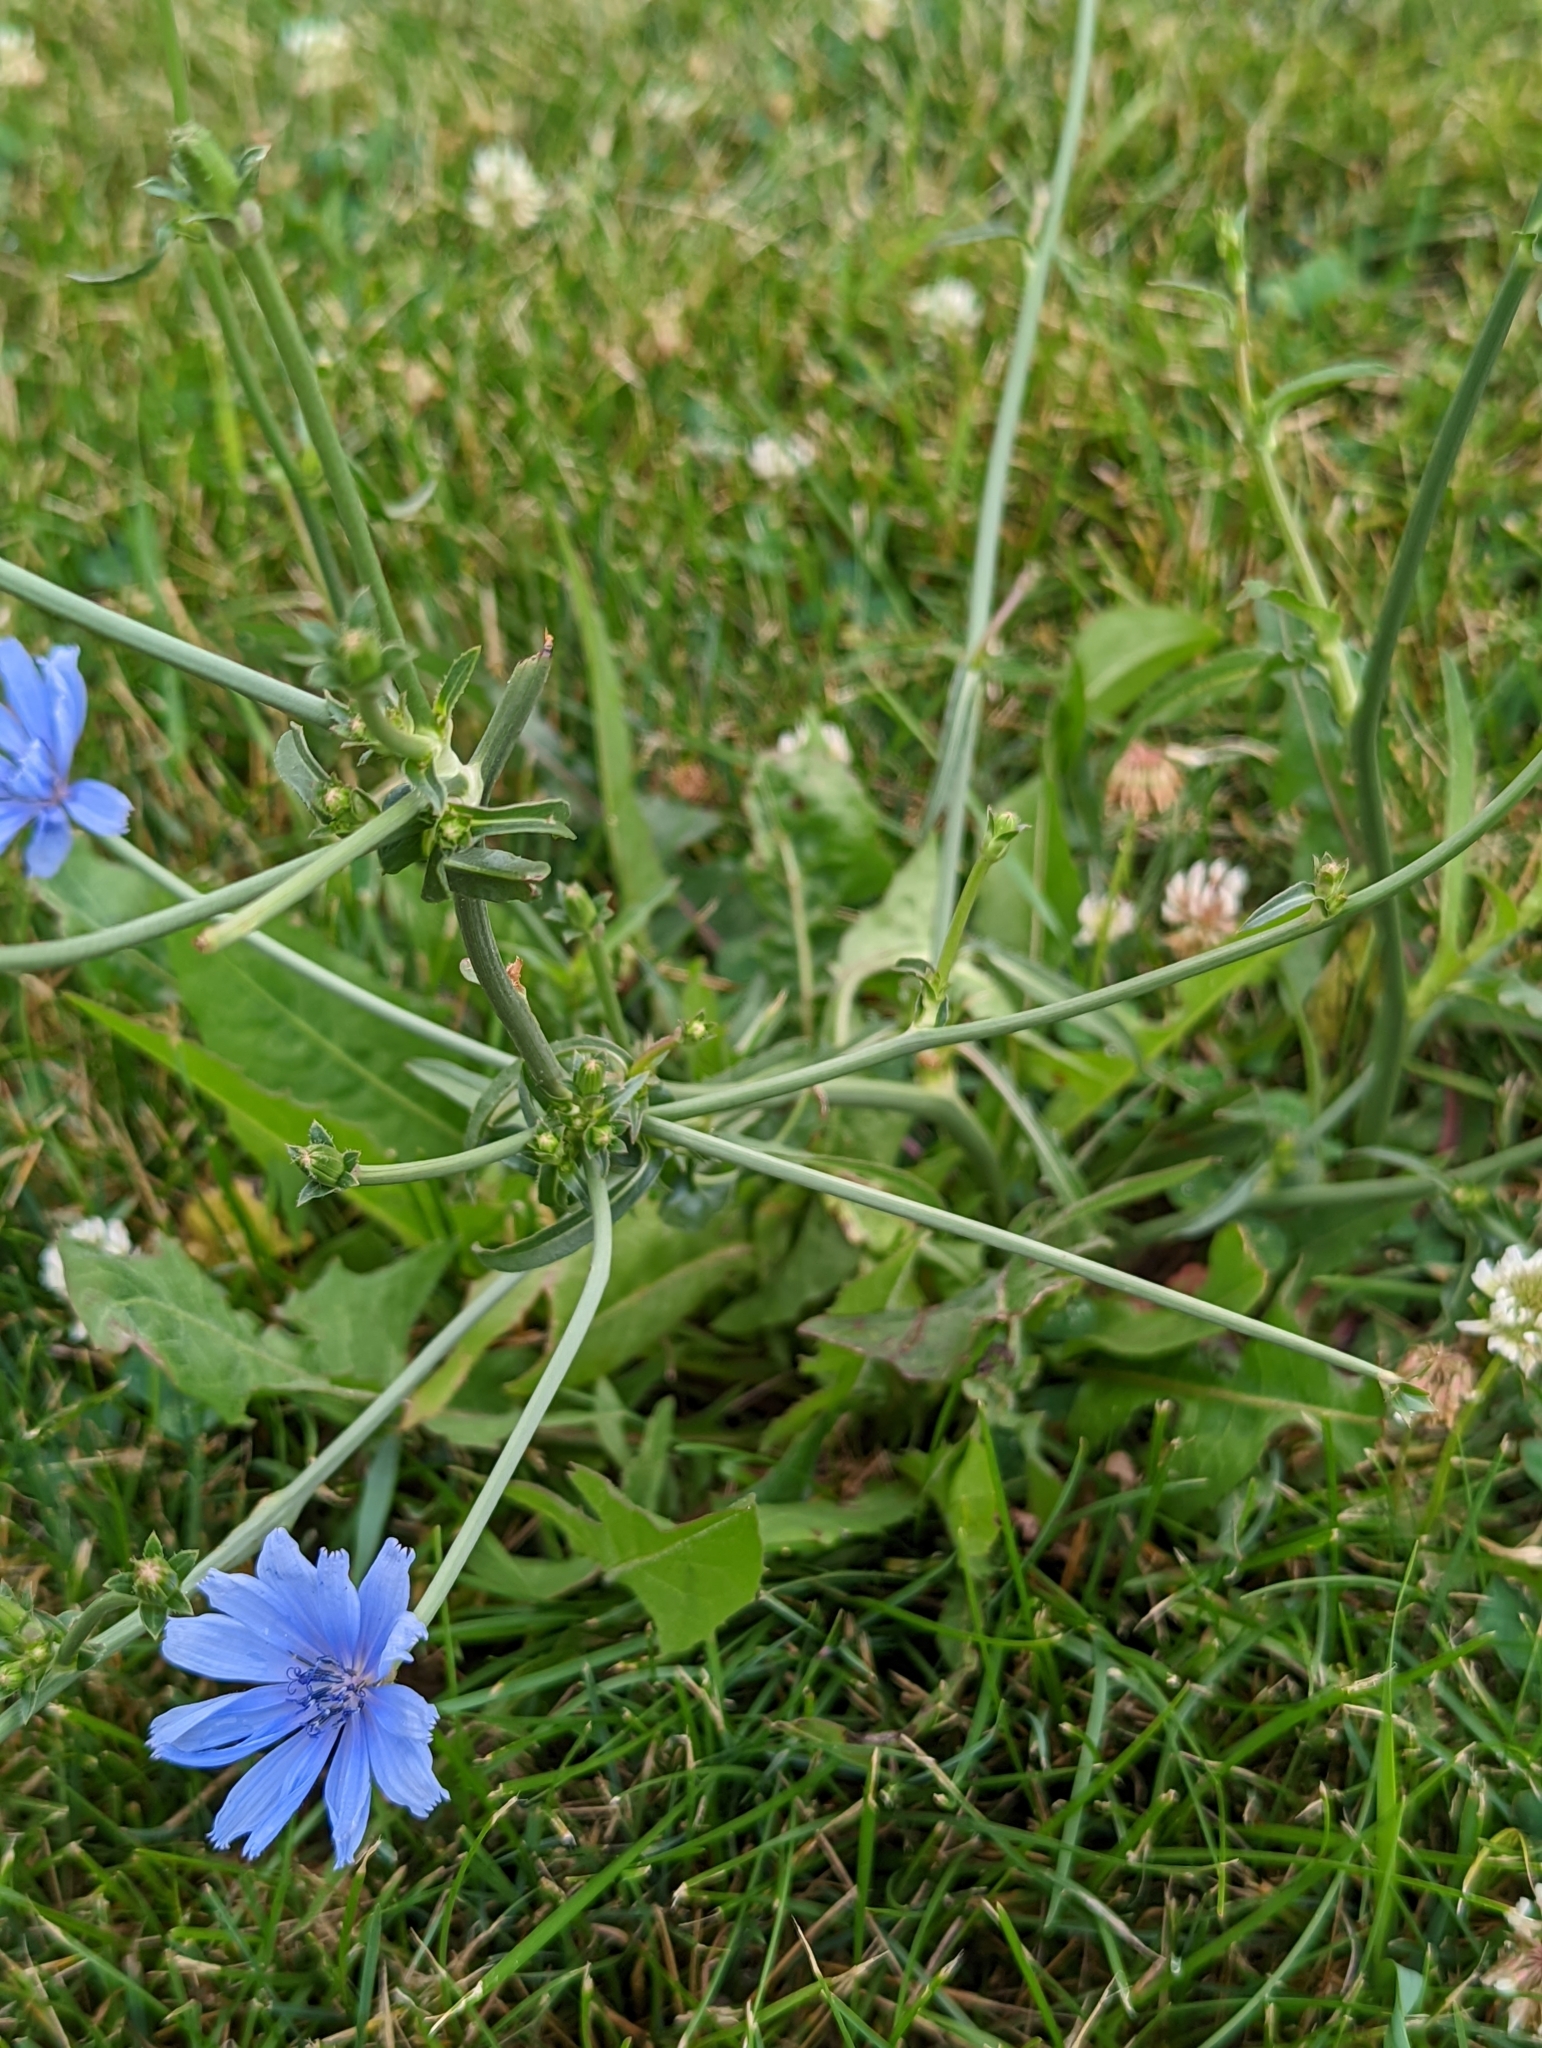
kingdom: Plantae
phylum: Tracheophyta
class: Magnoliopsida
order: Asterales
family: Asteraceae
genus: Cichorium
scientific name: Cichorium intybus
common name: Chicory
